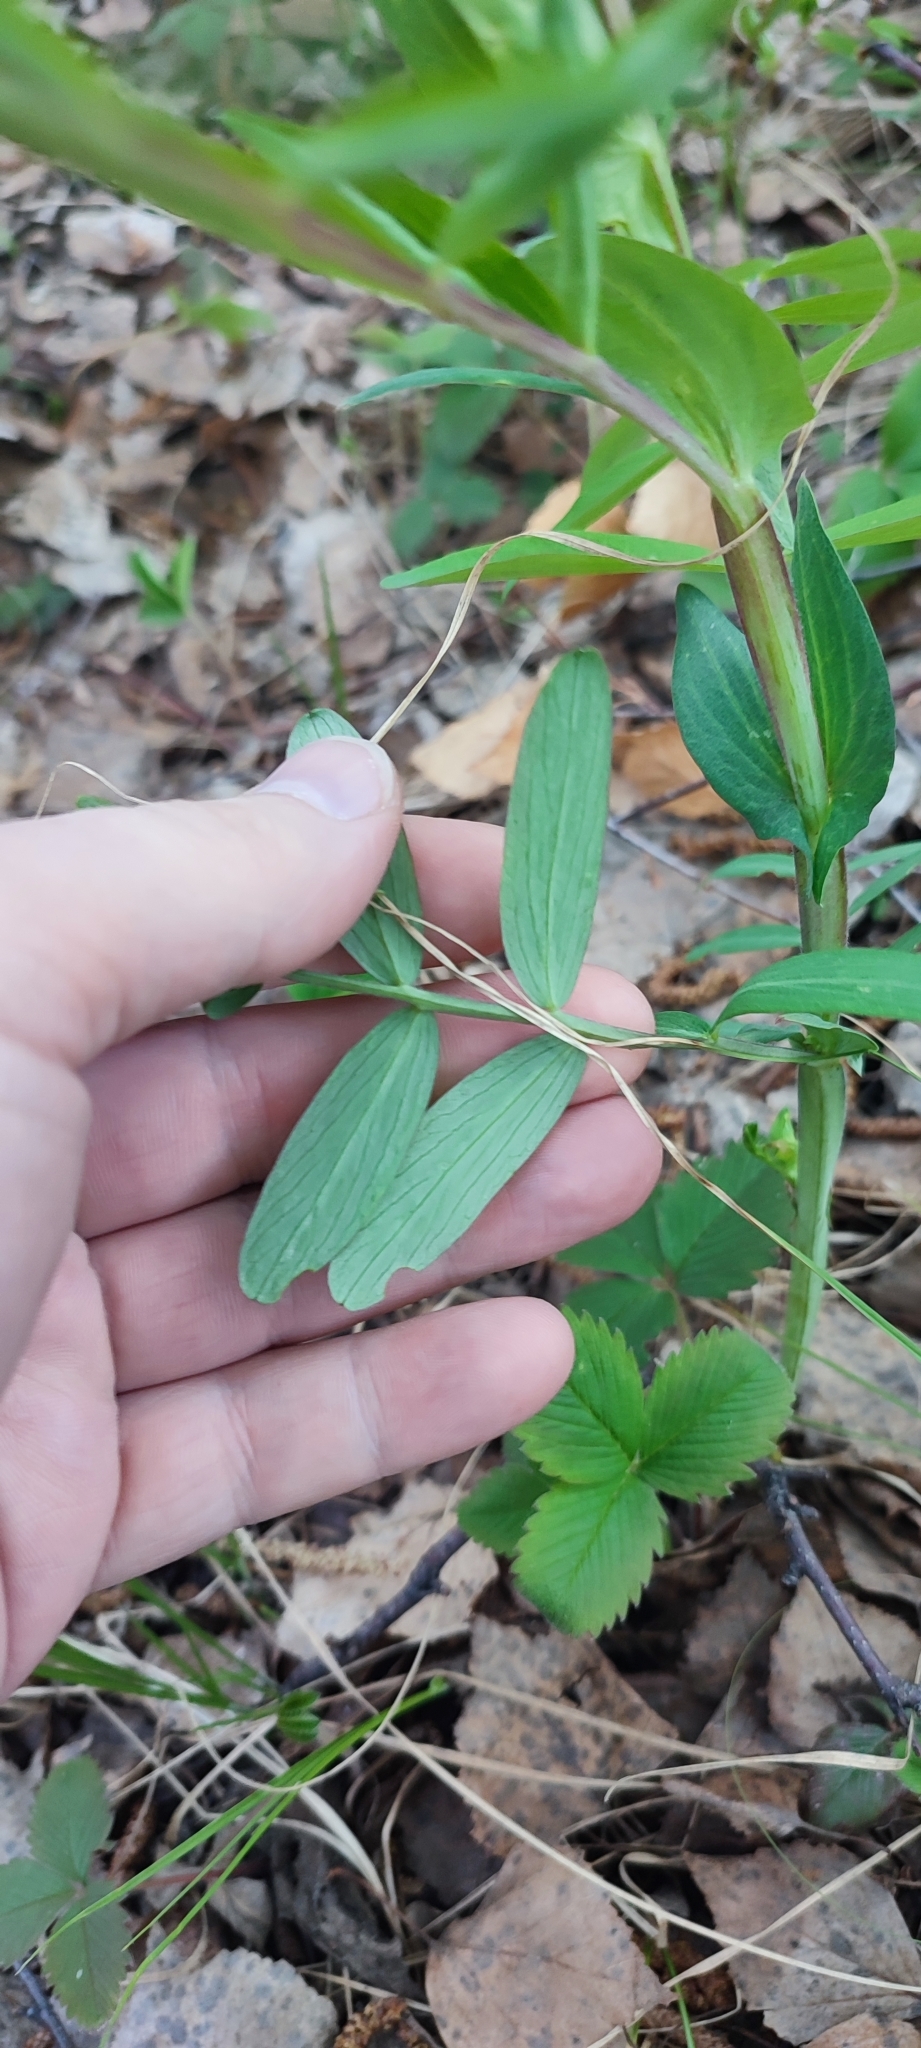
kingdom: Plantae
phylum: Tracheophyta
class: Magnoliopsida
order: Fabales
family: Fabaceae
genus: Lathyrus
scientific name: Lathyrus pisiformis
